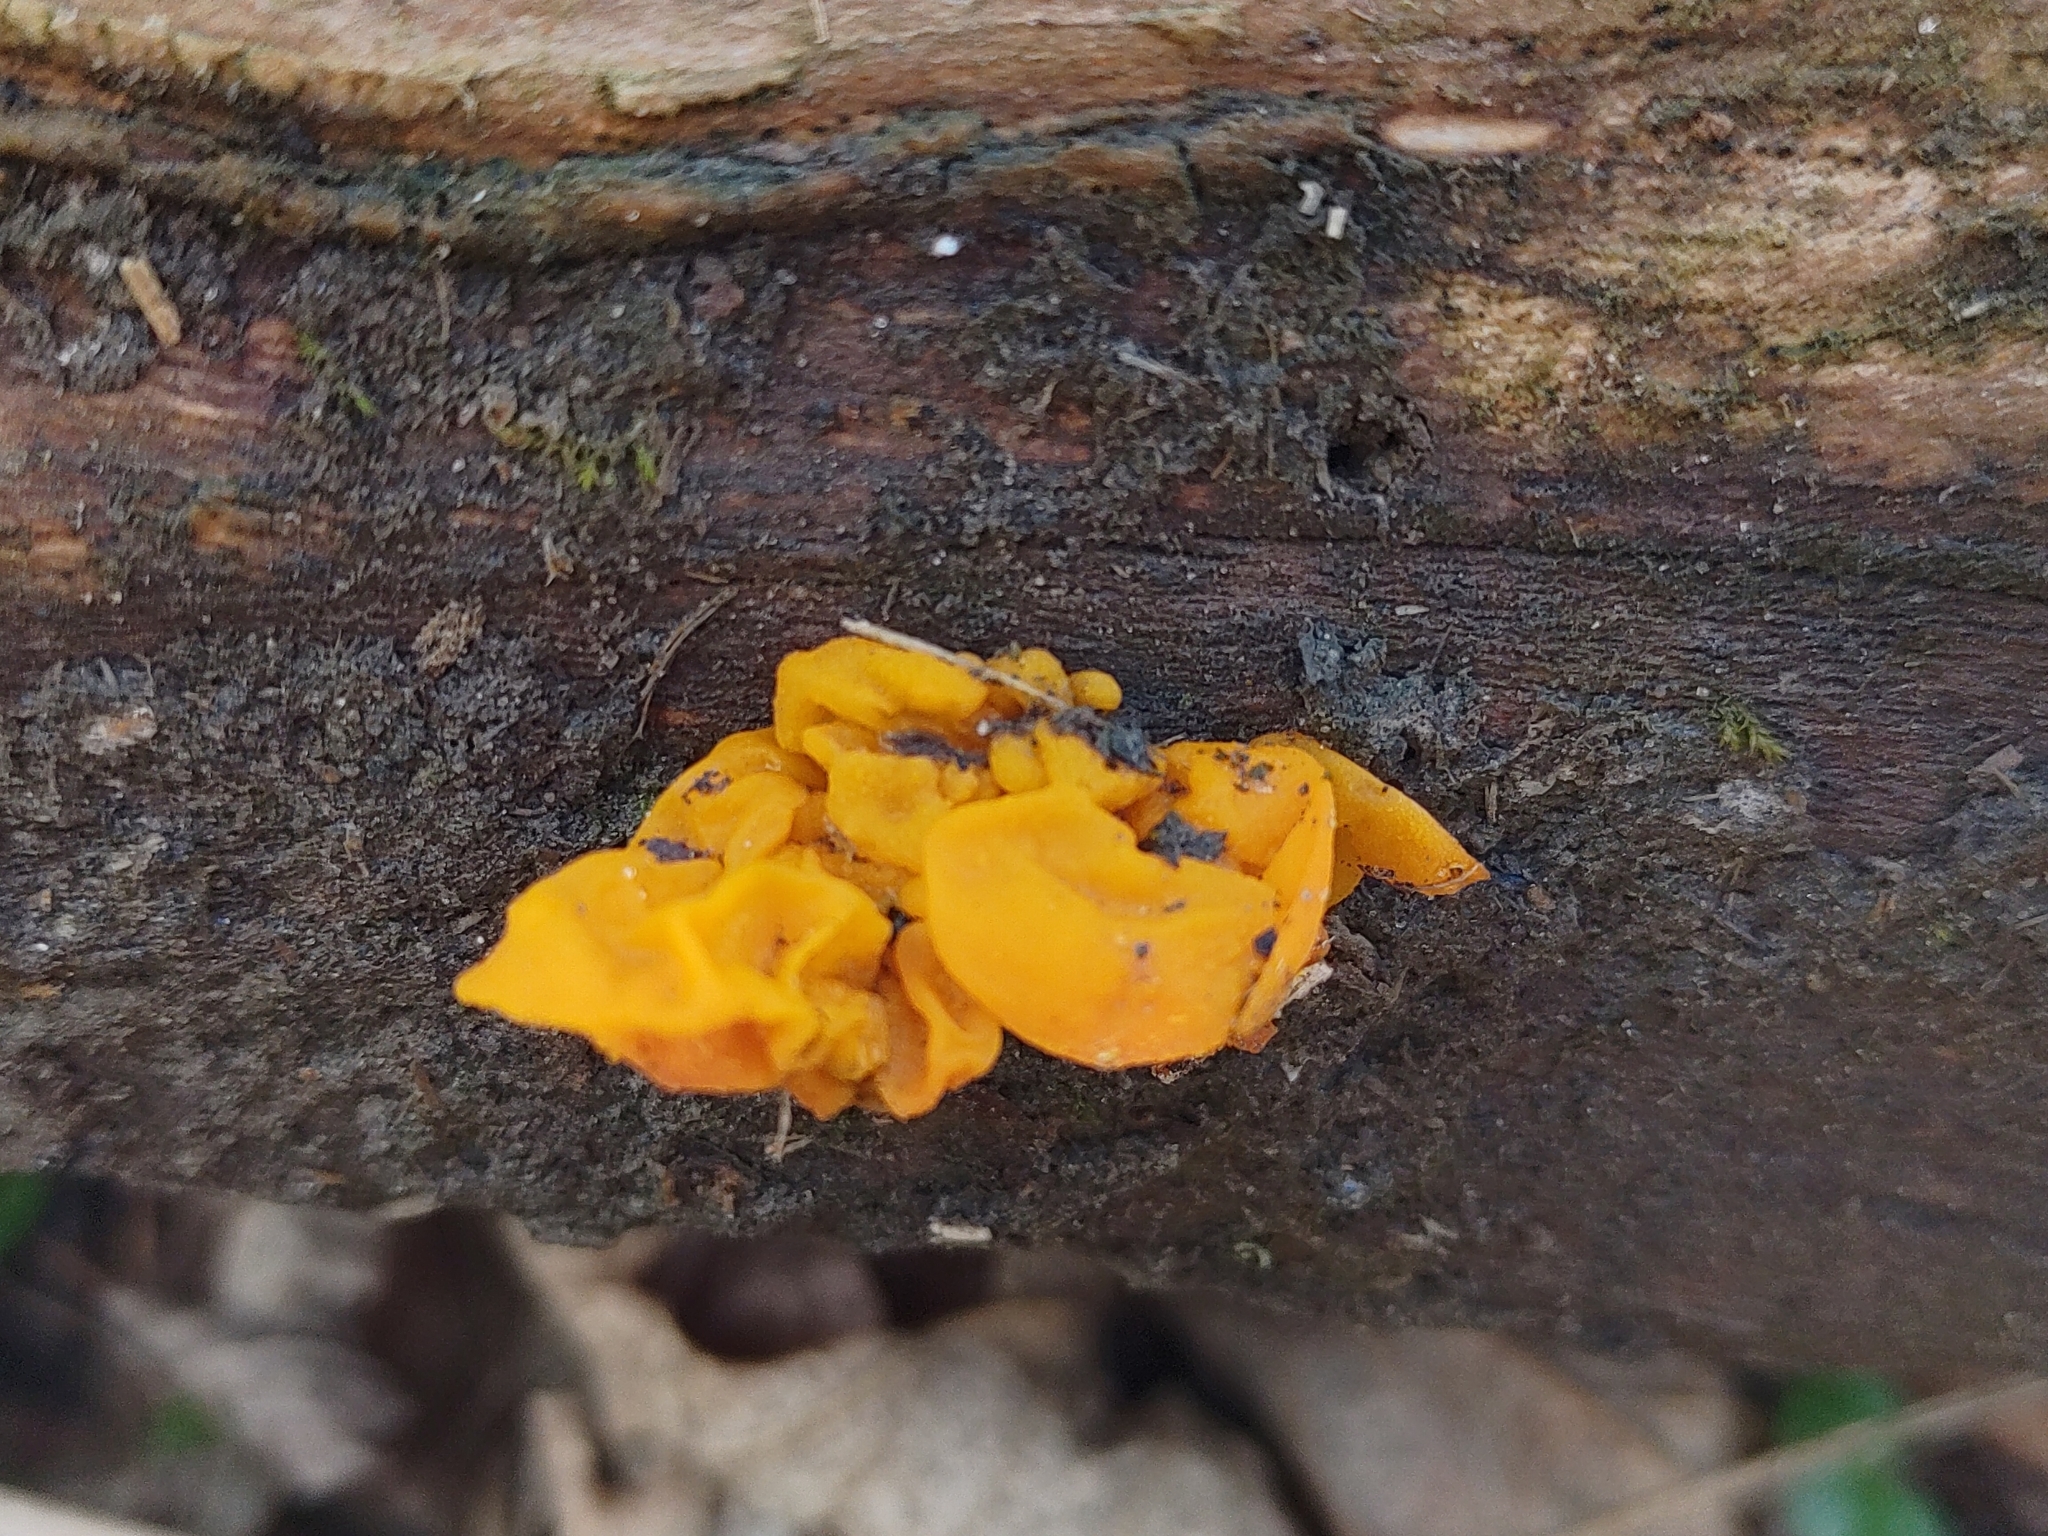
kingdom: Fungi
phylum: Basidiomycota
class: Tremellomycetes
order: Tremellales
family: Tremellaceae
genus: Tremella
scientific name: Tremella mesenterica
